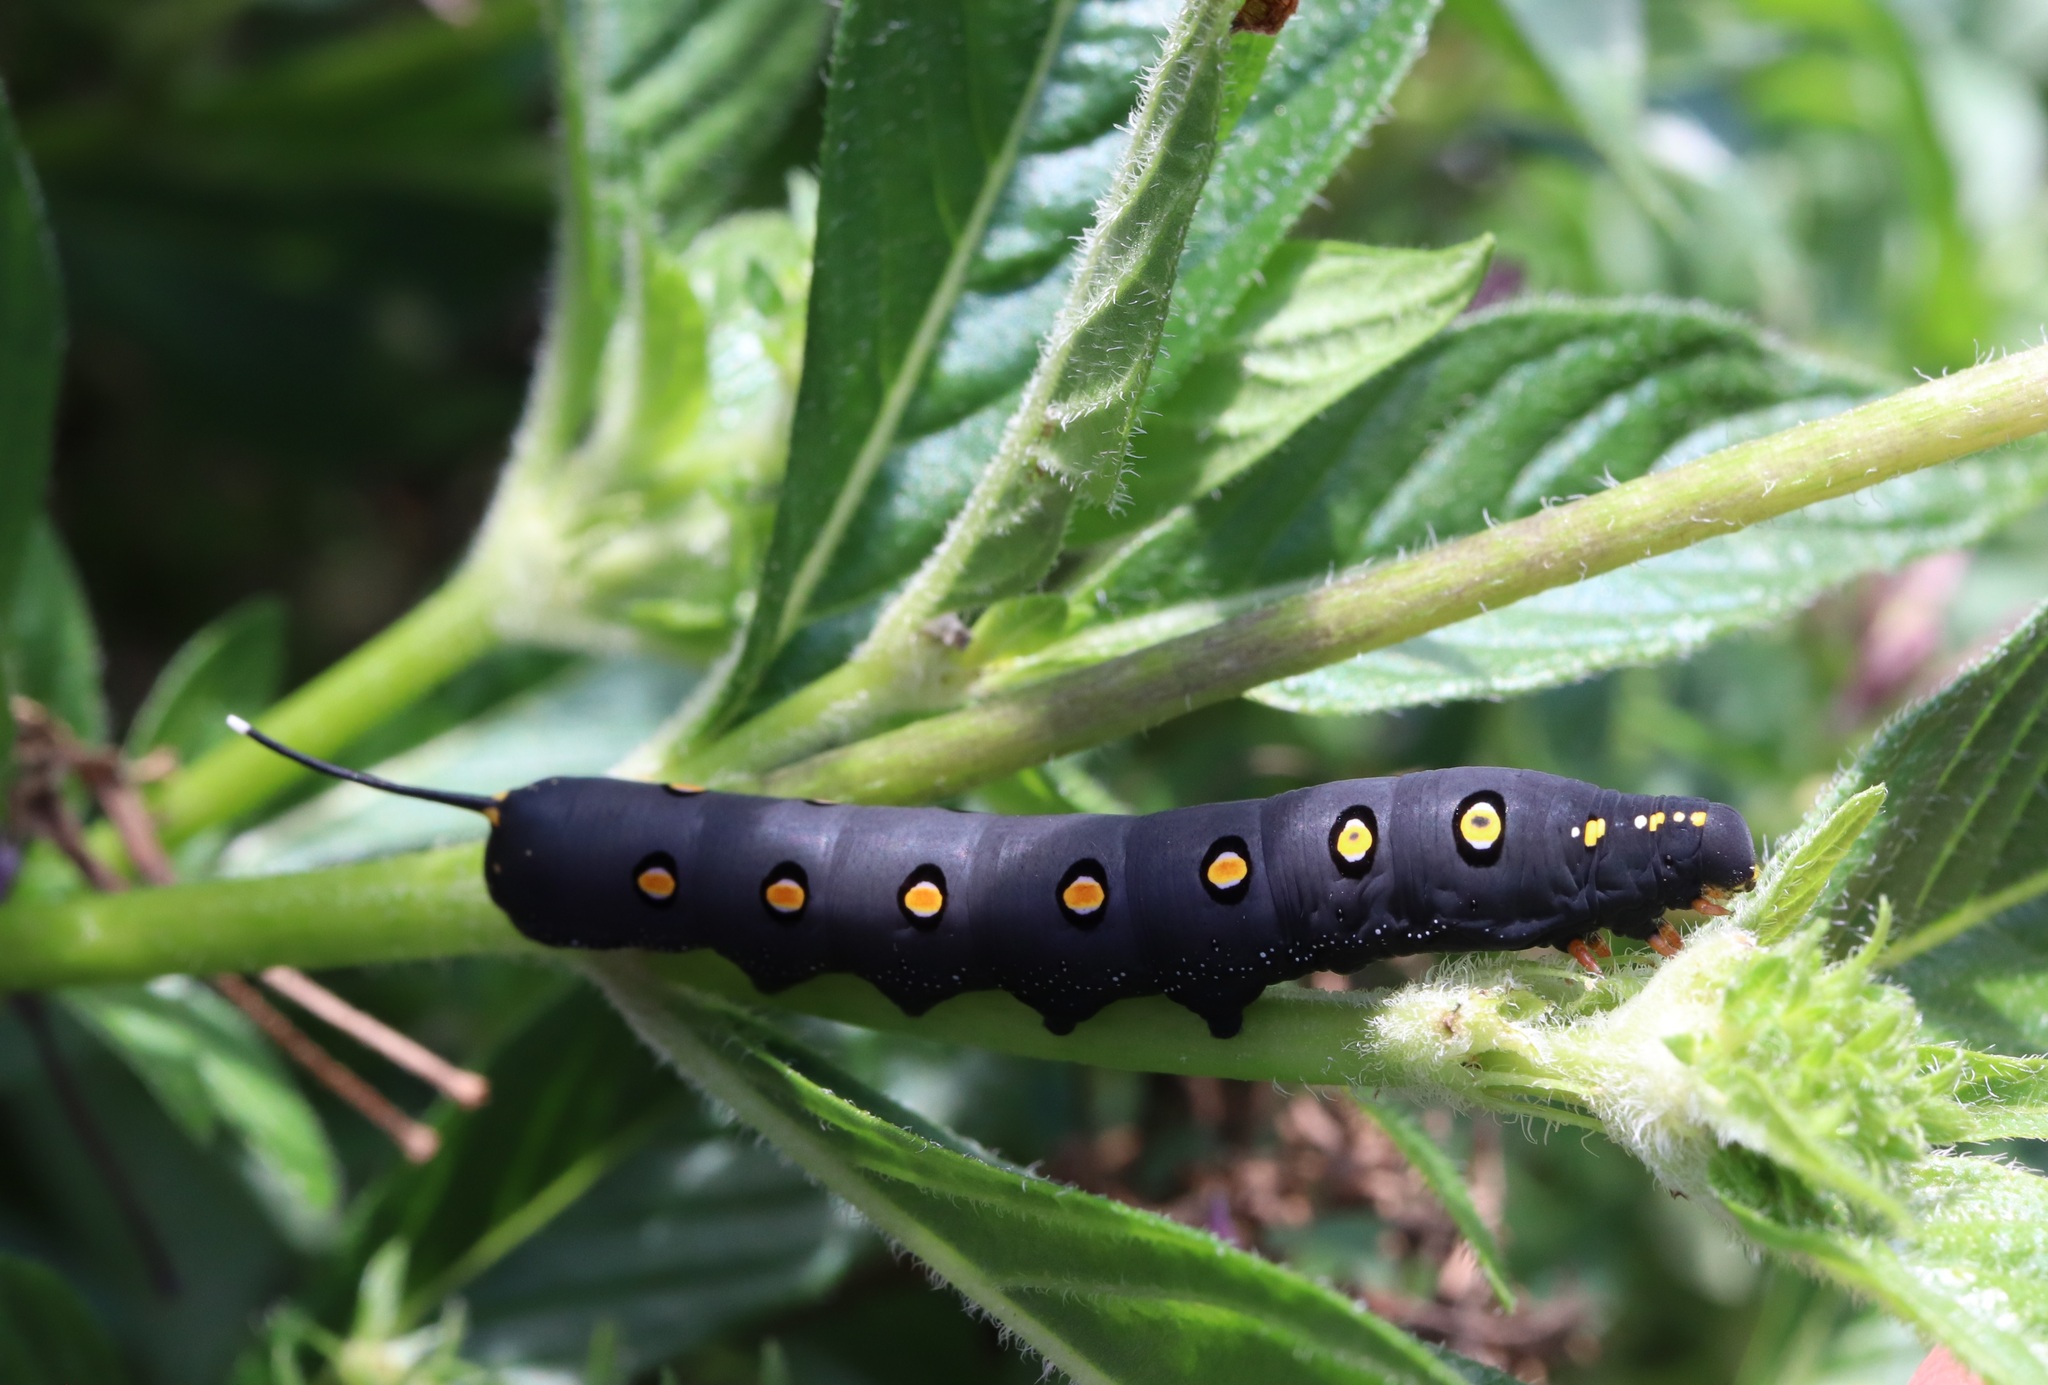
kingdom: Animalia
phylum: Arthropoda
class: Insecta
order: Lepidoptera
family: Sphingidae
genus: Theretra
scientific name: Theretra oldenlandiae
